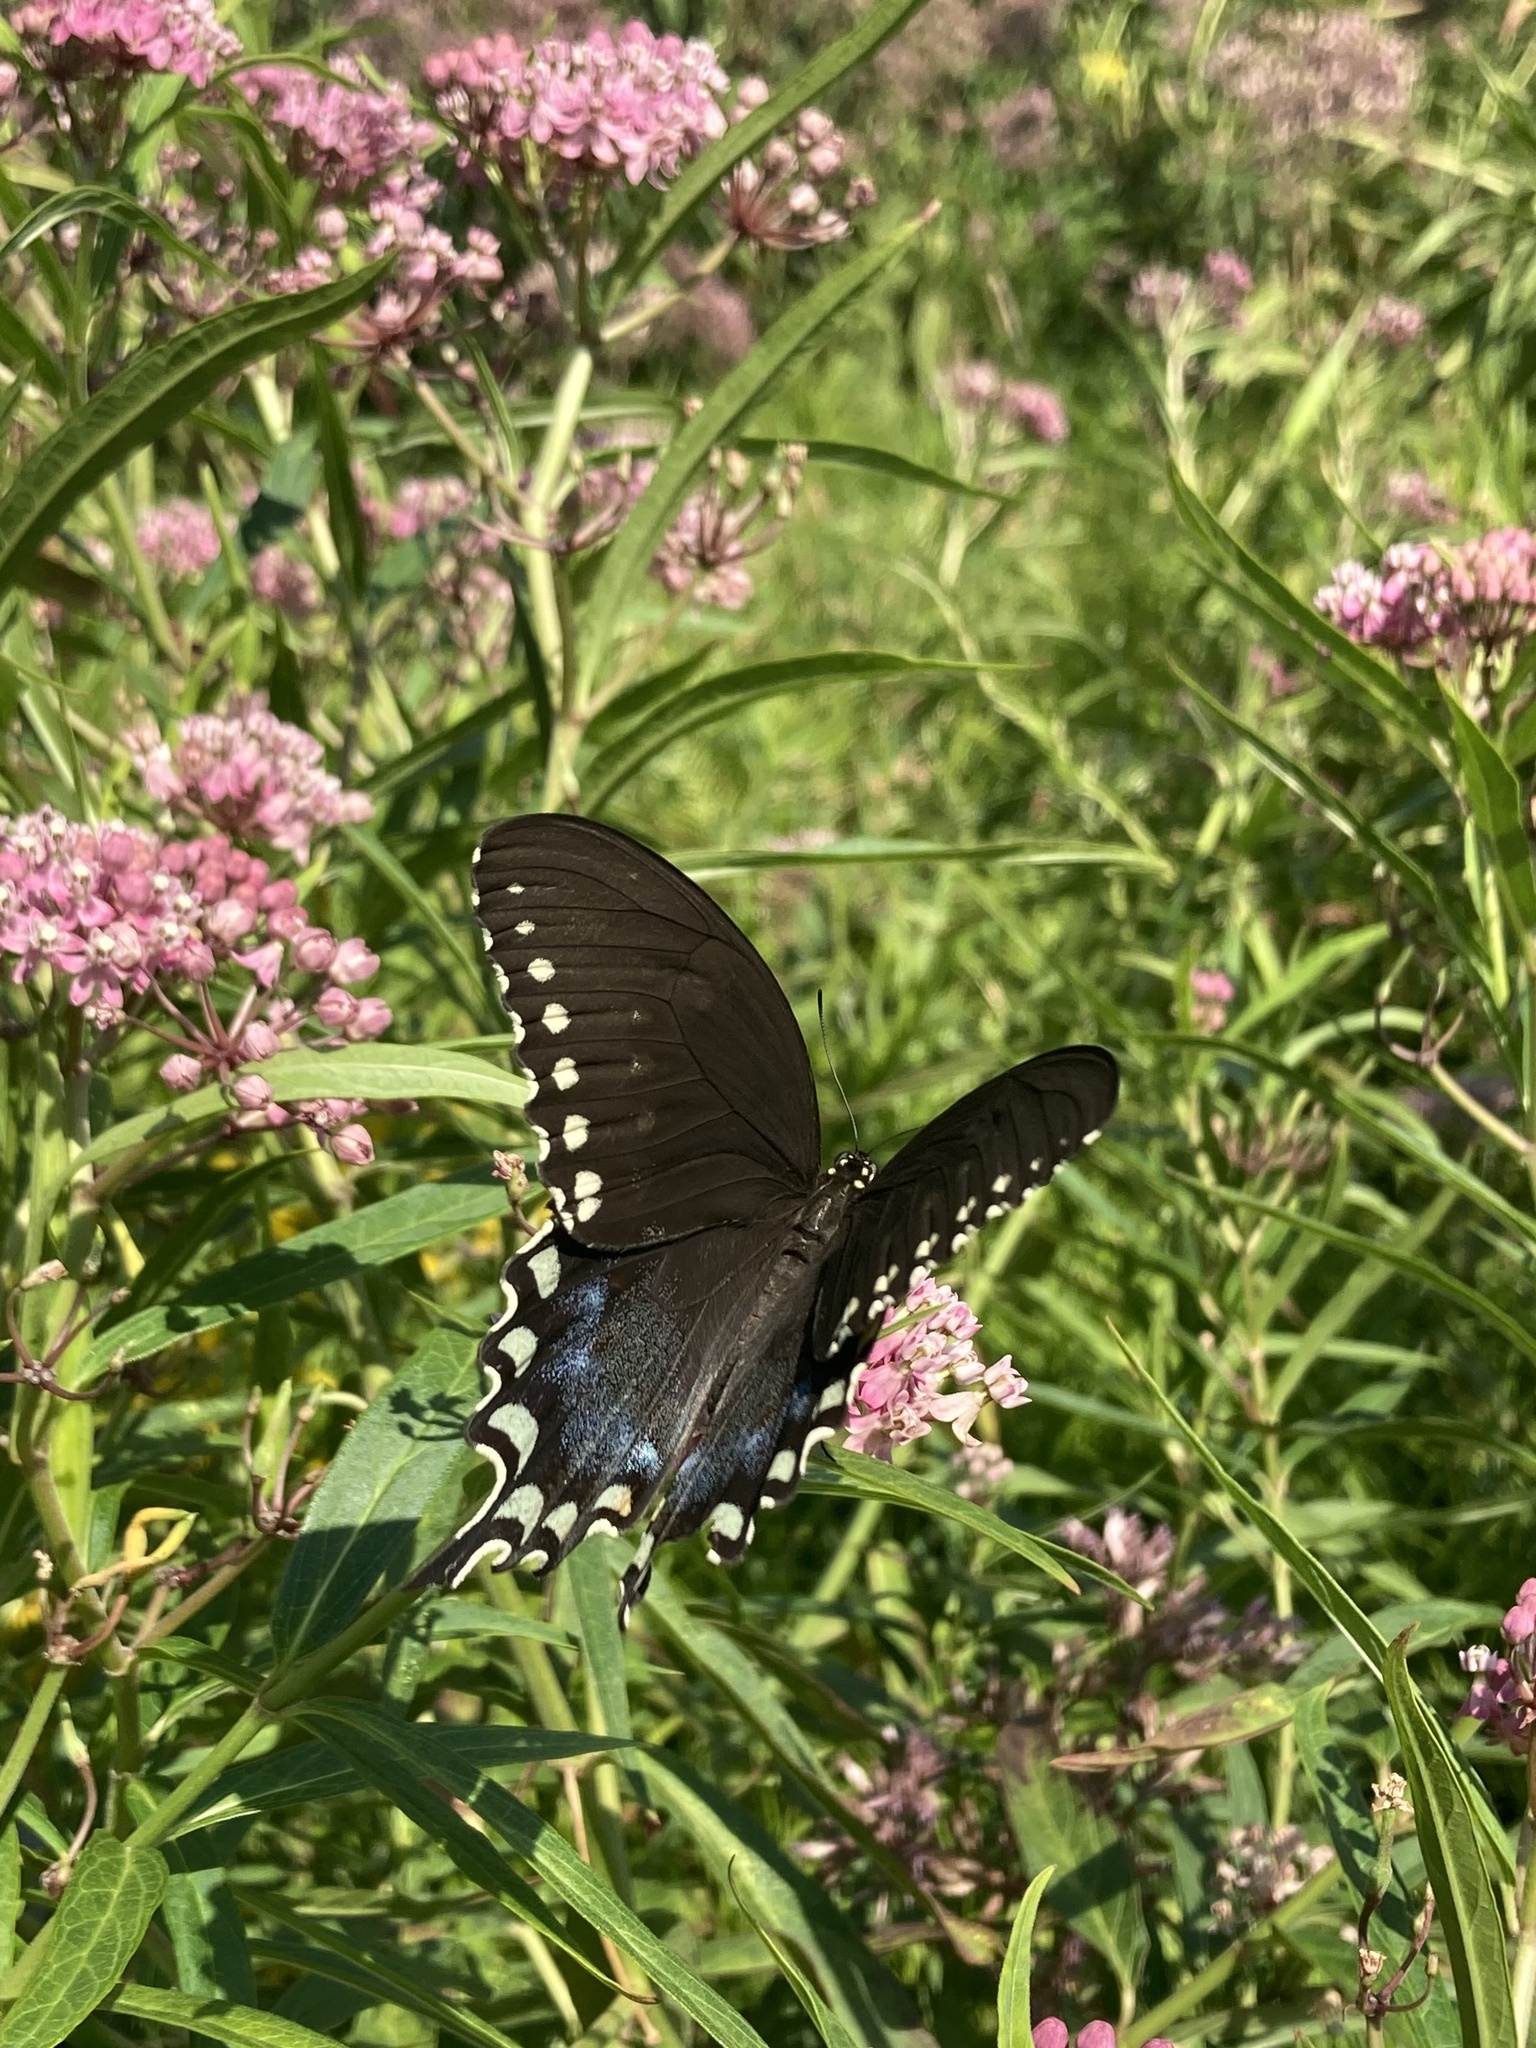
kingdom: Animalia
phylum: Arthropoda
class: Insecta
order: Lepidoptera
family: Papilionidae
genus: Papilio
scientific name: Papilio troilus
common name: Spicebush swallowtail
